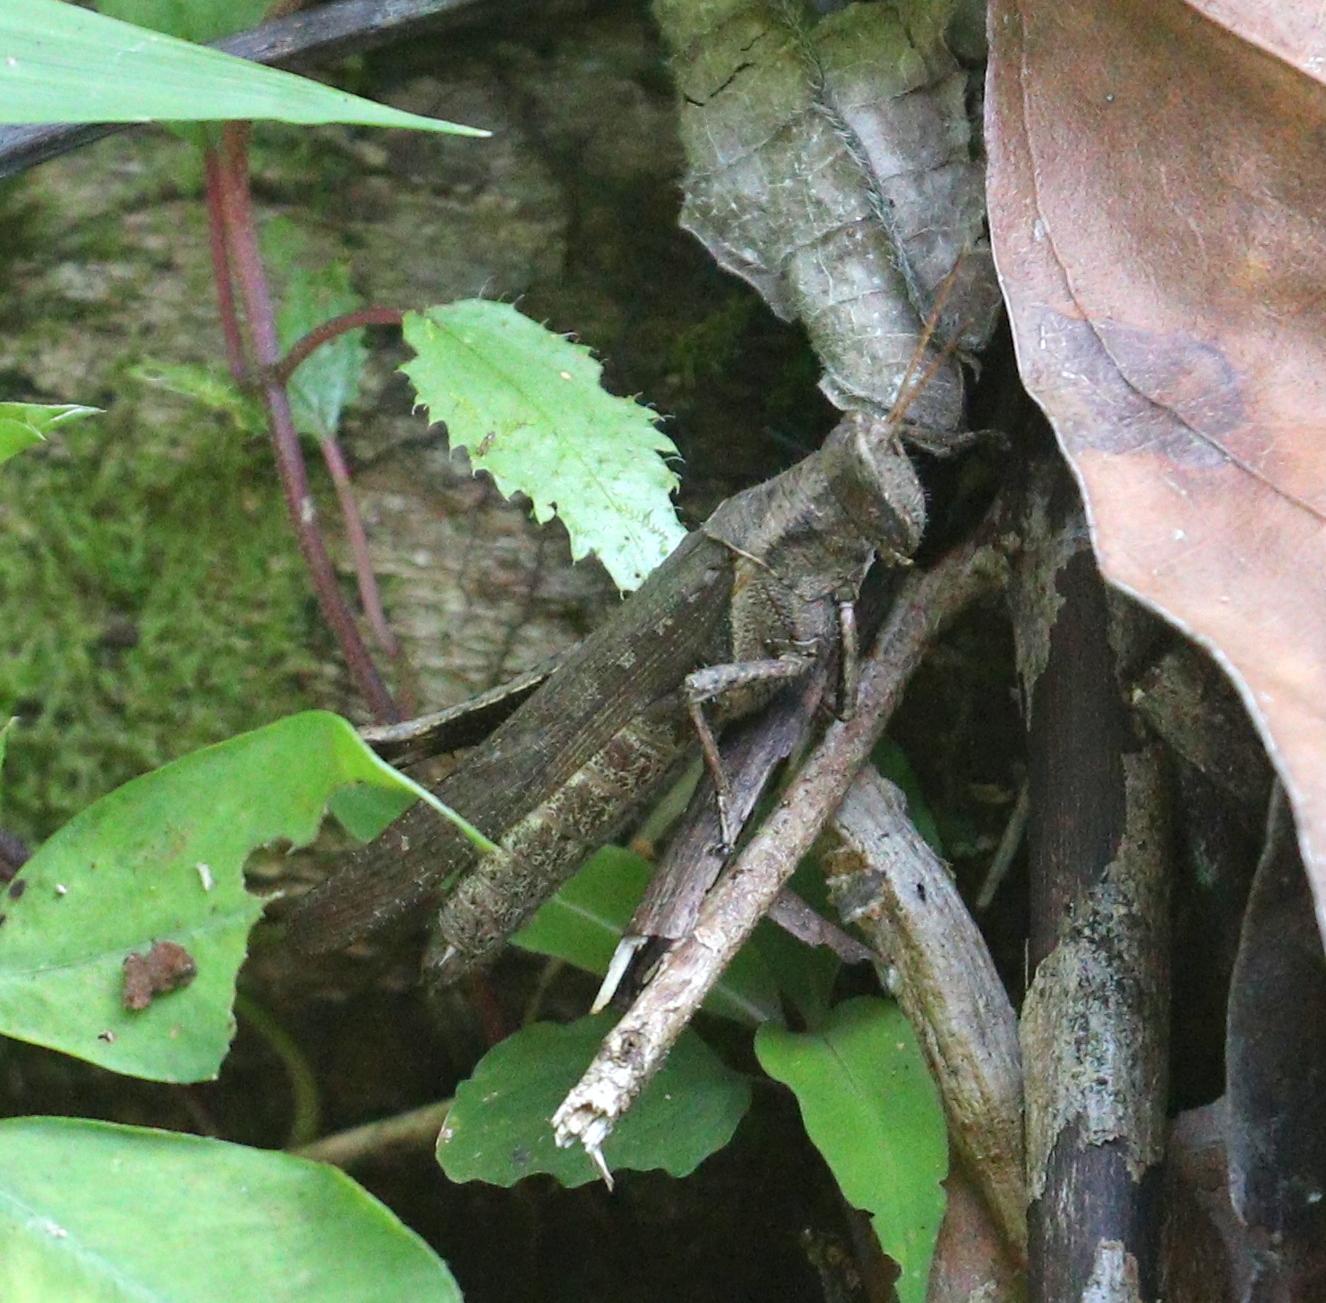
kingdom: Animalia
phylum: Arthropoda
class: Insecta
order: Orthoptera
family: Acrididae
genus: Abracris
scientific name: Abracris flavolineata
